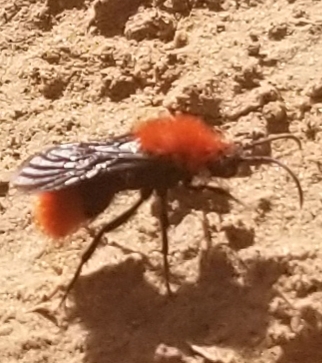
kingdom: Animalia
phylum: Arthropoda
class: Insecta
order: Hymenoptera
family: Mutillidae
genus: Dasymutilla
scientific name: Dasymutilla vestita
